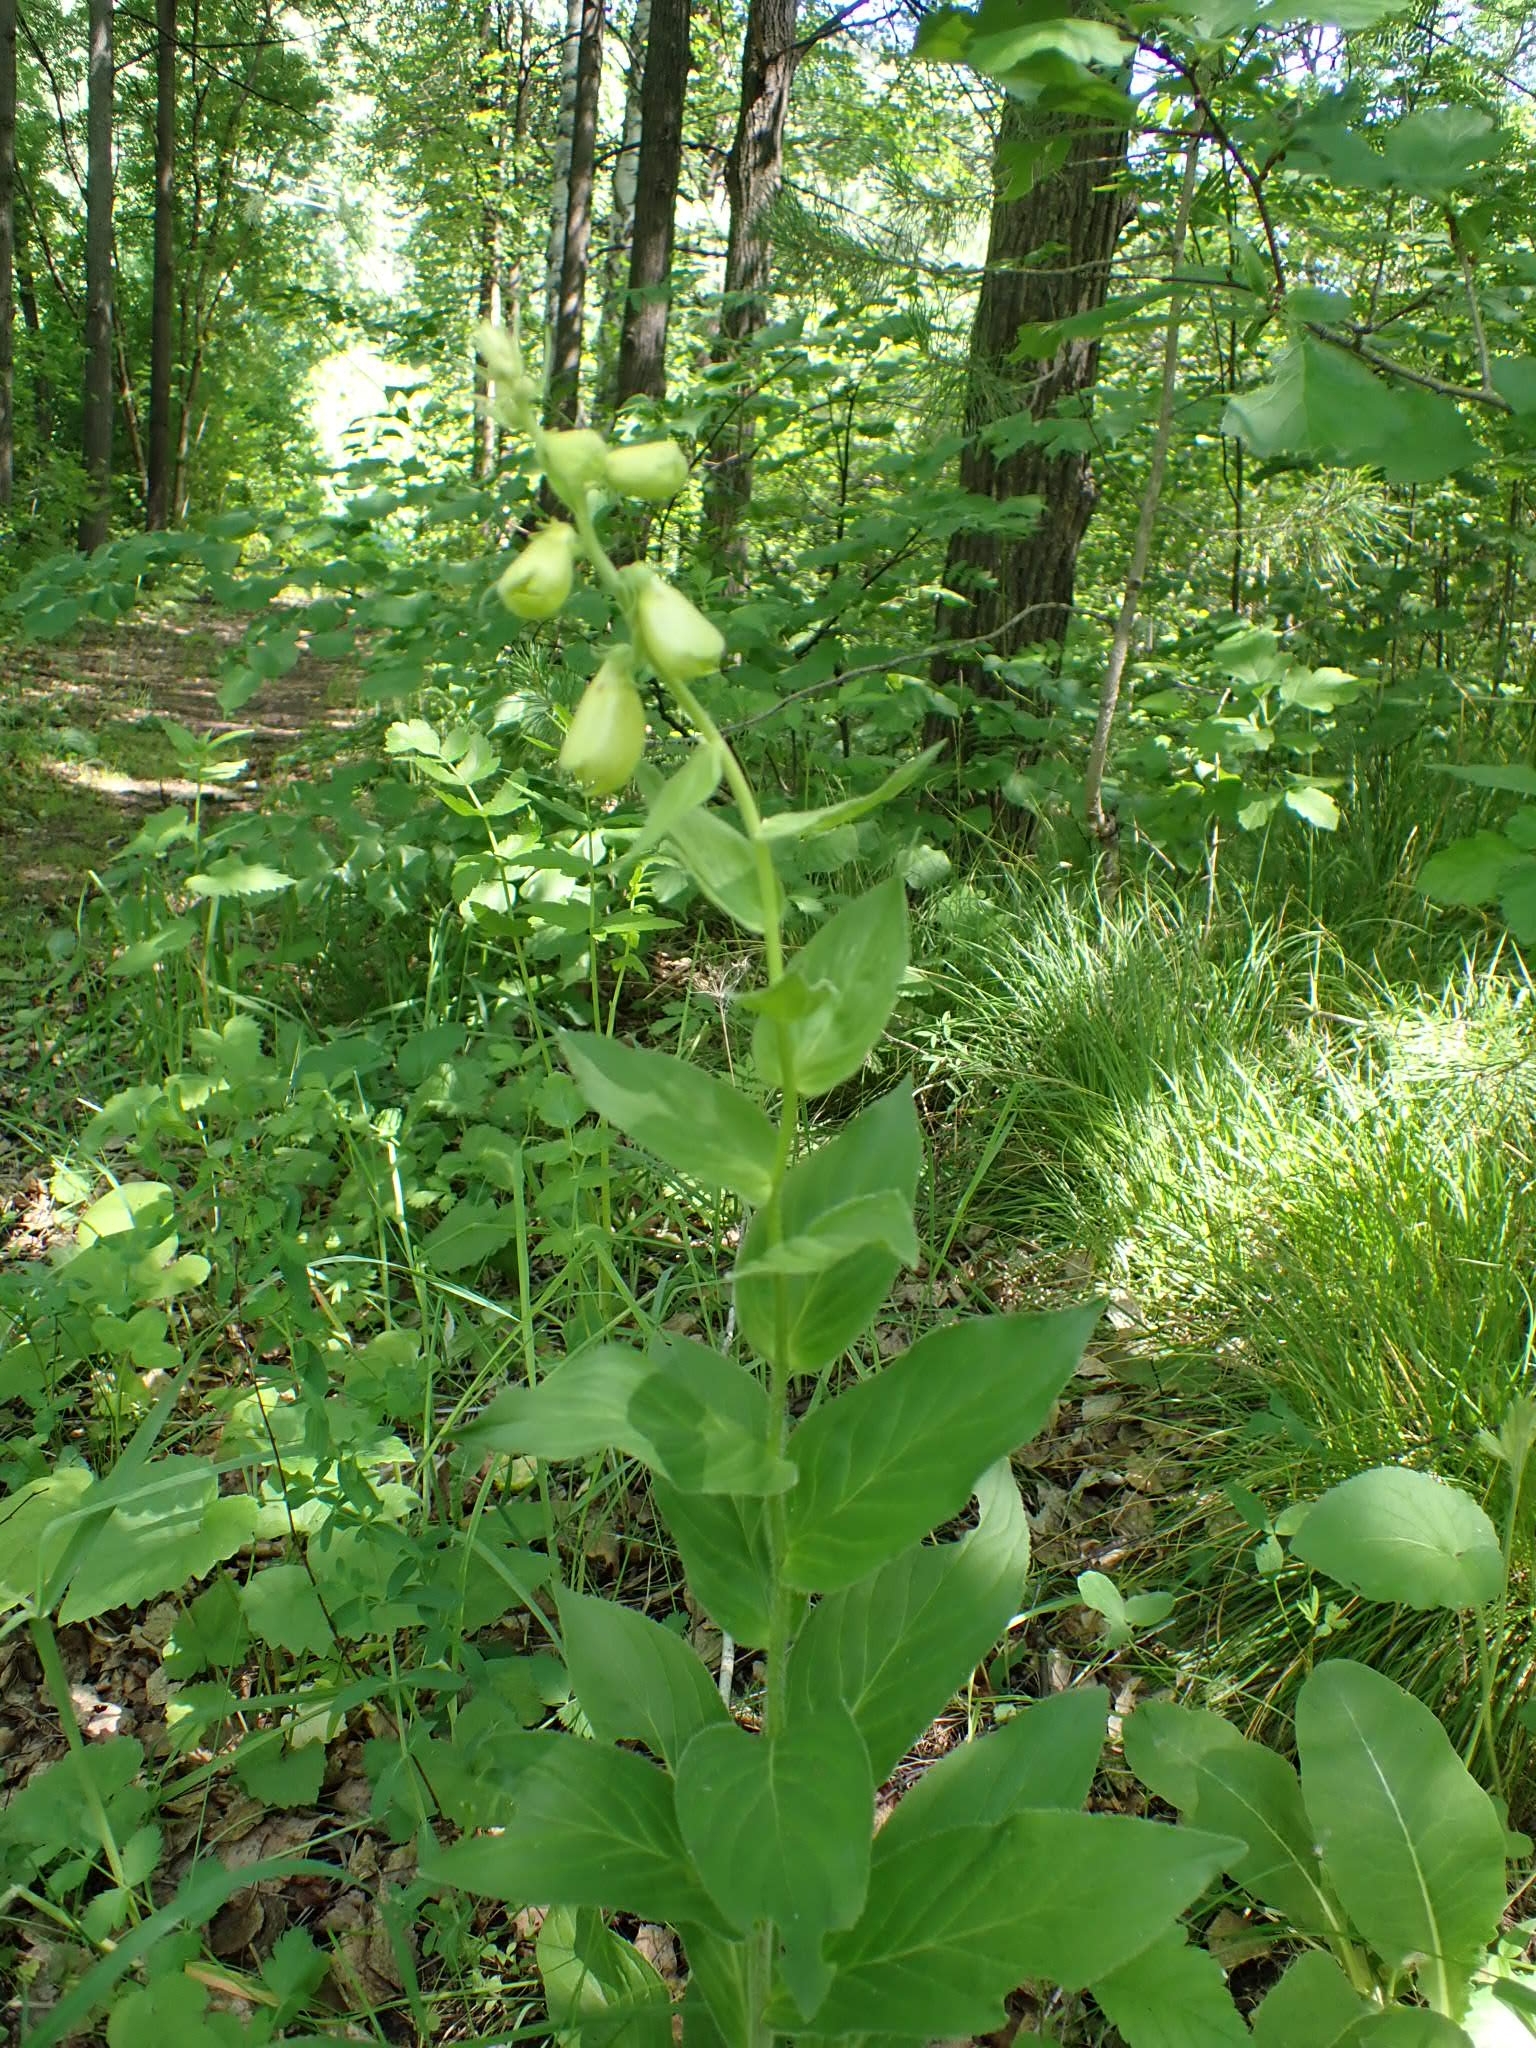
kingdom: Plantae
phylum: Tracheophyta
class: Magnoliopsida
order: Lamiales
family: Plantaginaceae
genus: Digitalis
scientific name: Digitalis grandiflora
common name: Yellow foxglove
